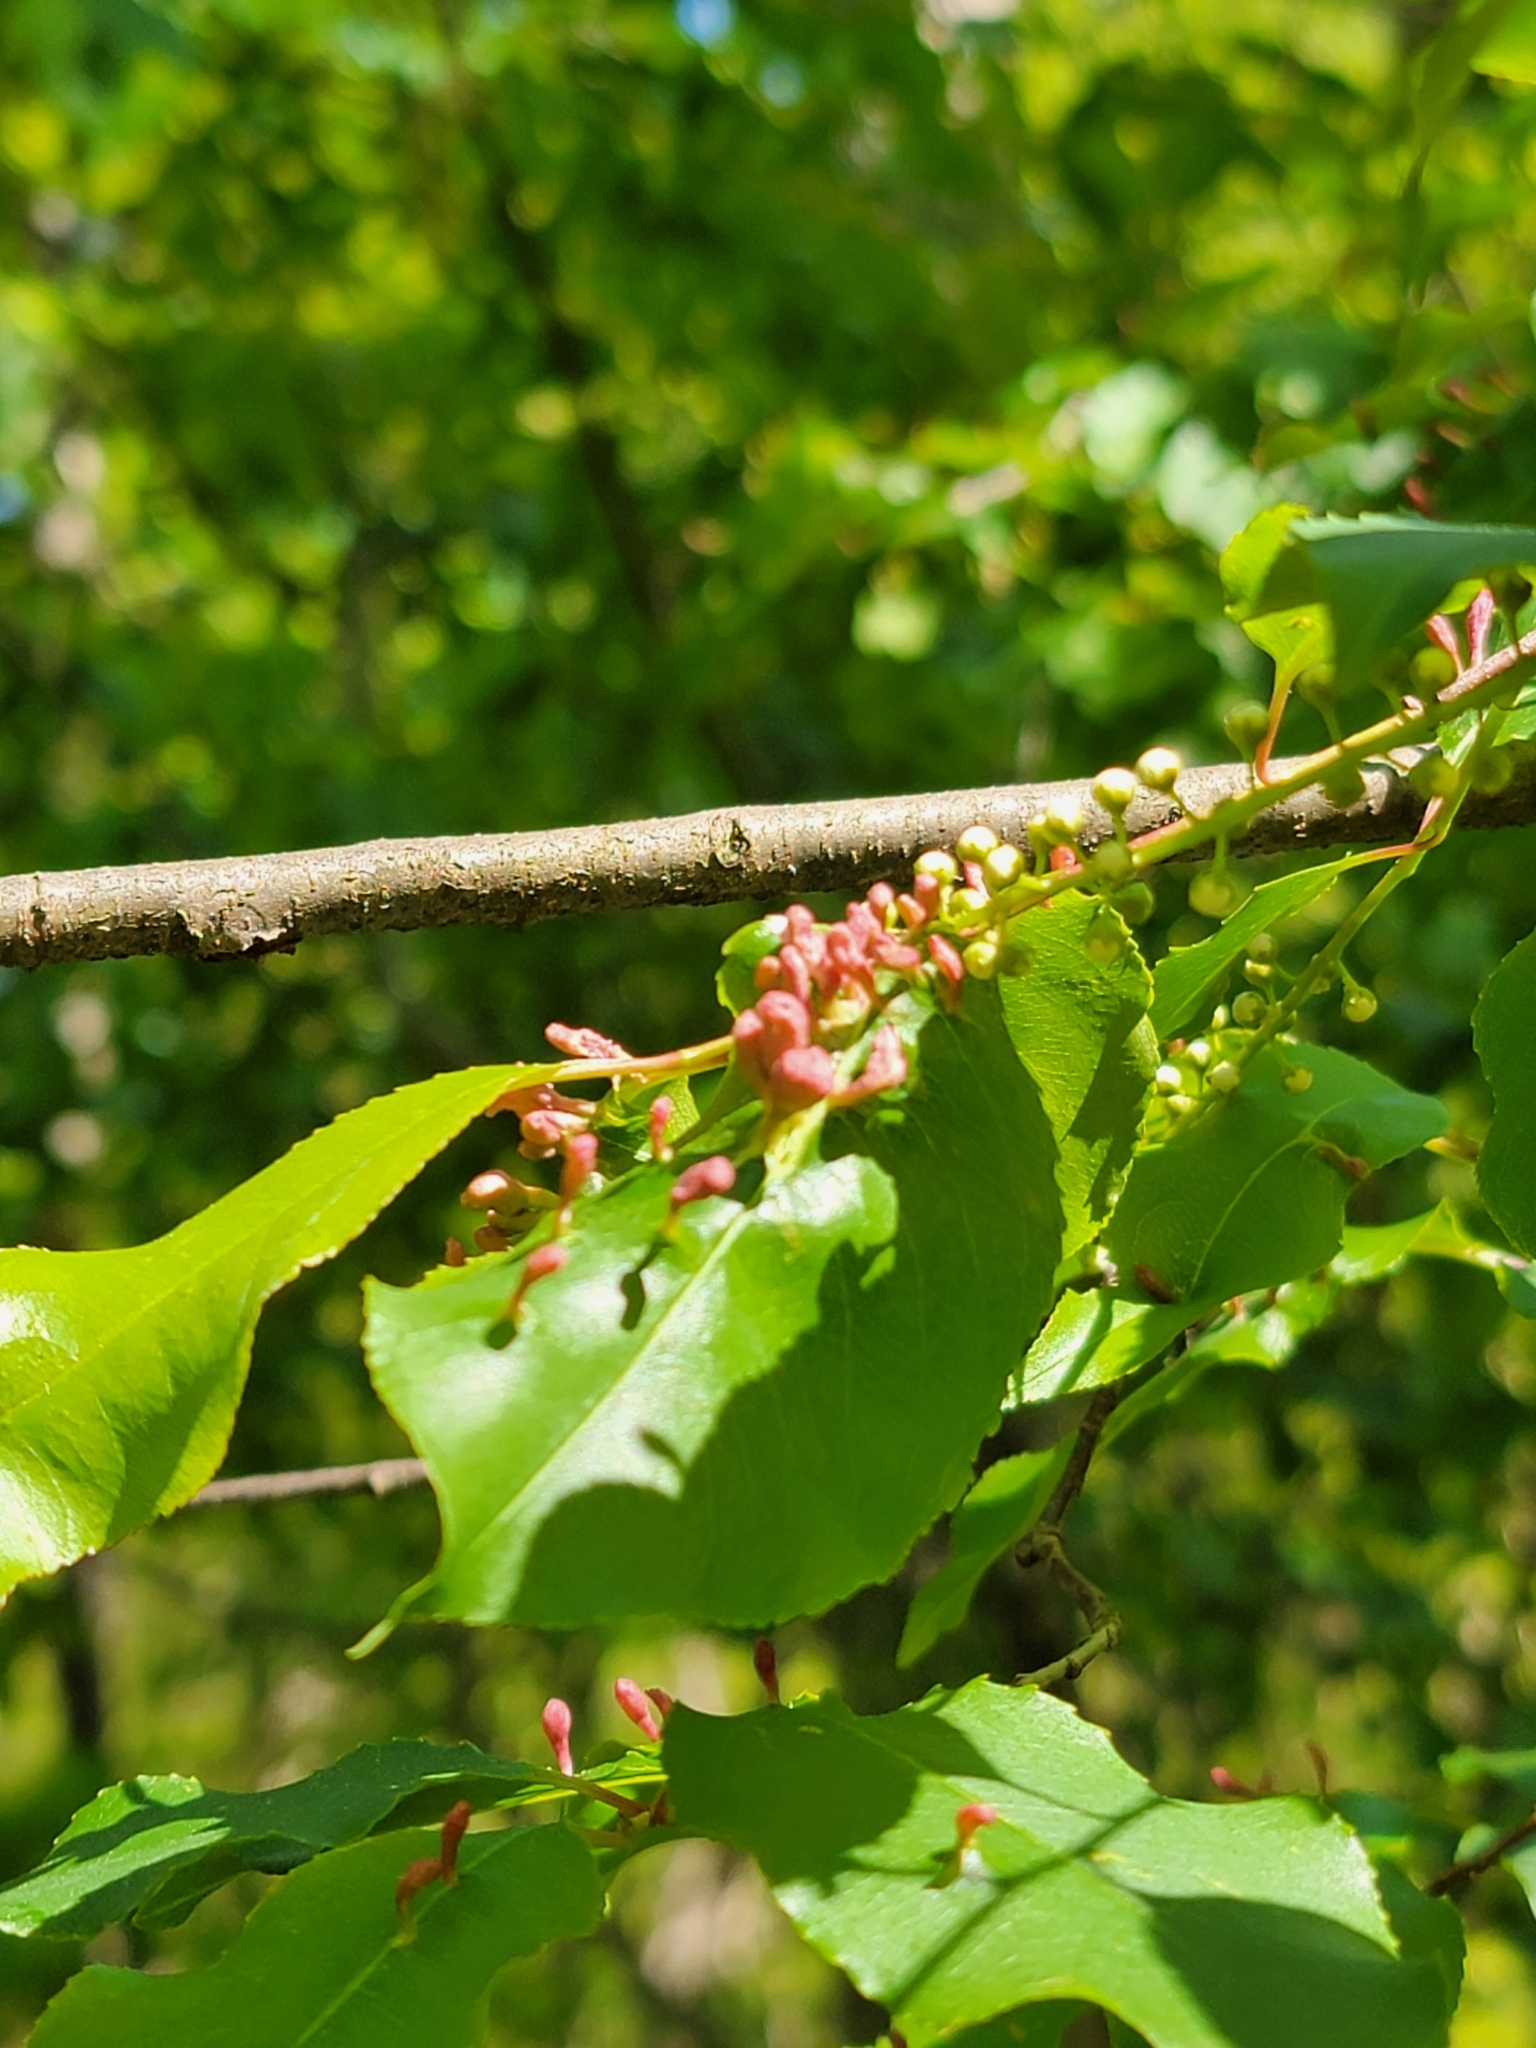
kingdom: Animalia
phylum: Arthropoda
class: Arachnida
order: Trombidiformes
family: Eriophyidae
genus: Eriophyes
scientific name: Eriophyes
